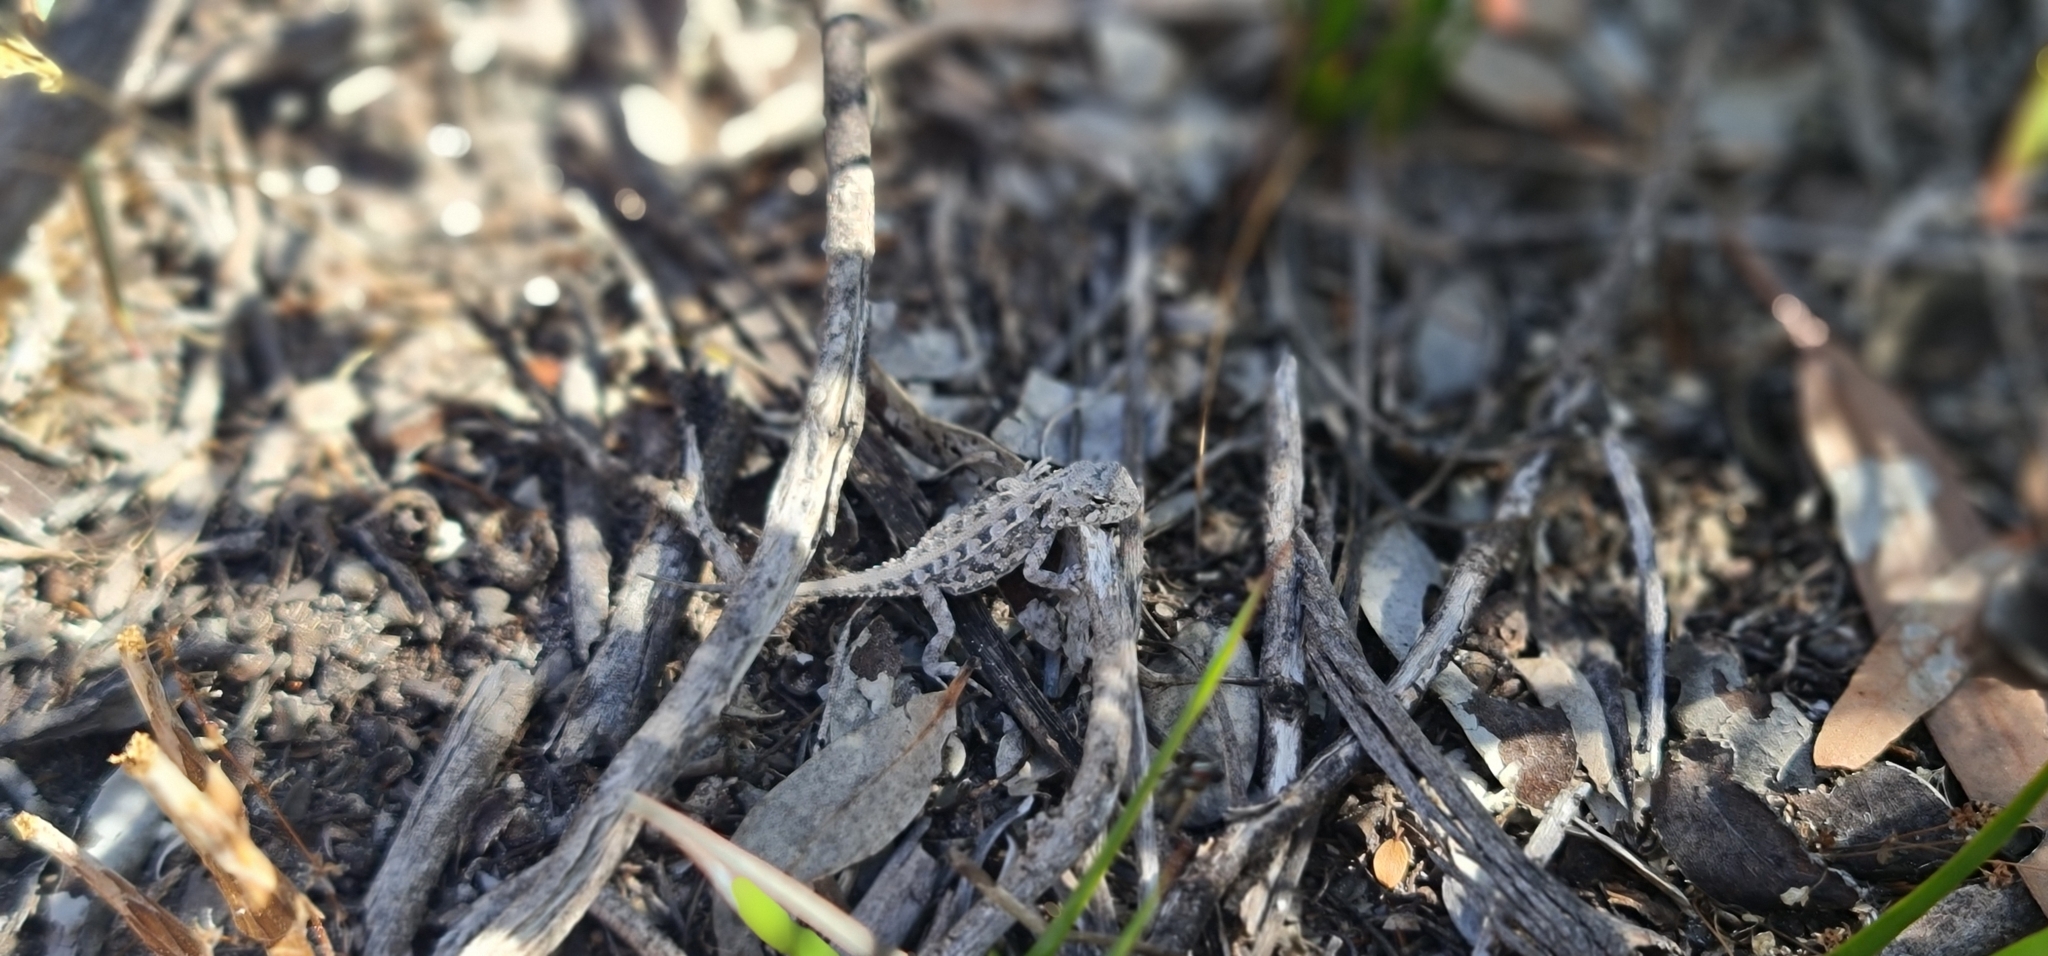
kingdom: Animalia
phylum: Chordata
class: Squamata
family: Agamidae
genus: Ctenophorus
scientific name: Ctenophorus chapmani
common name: Chapman's dragon
